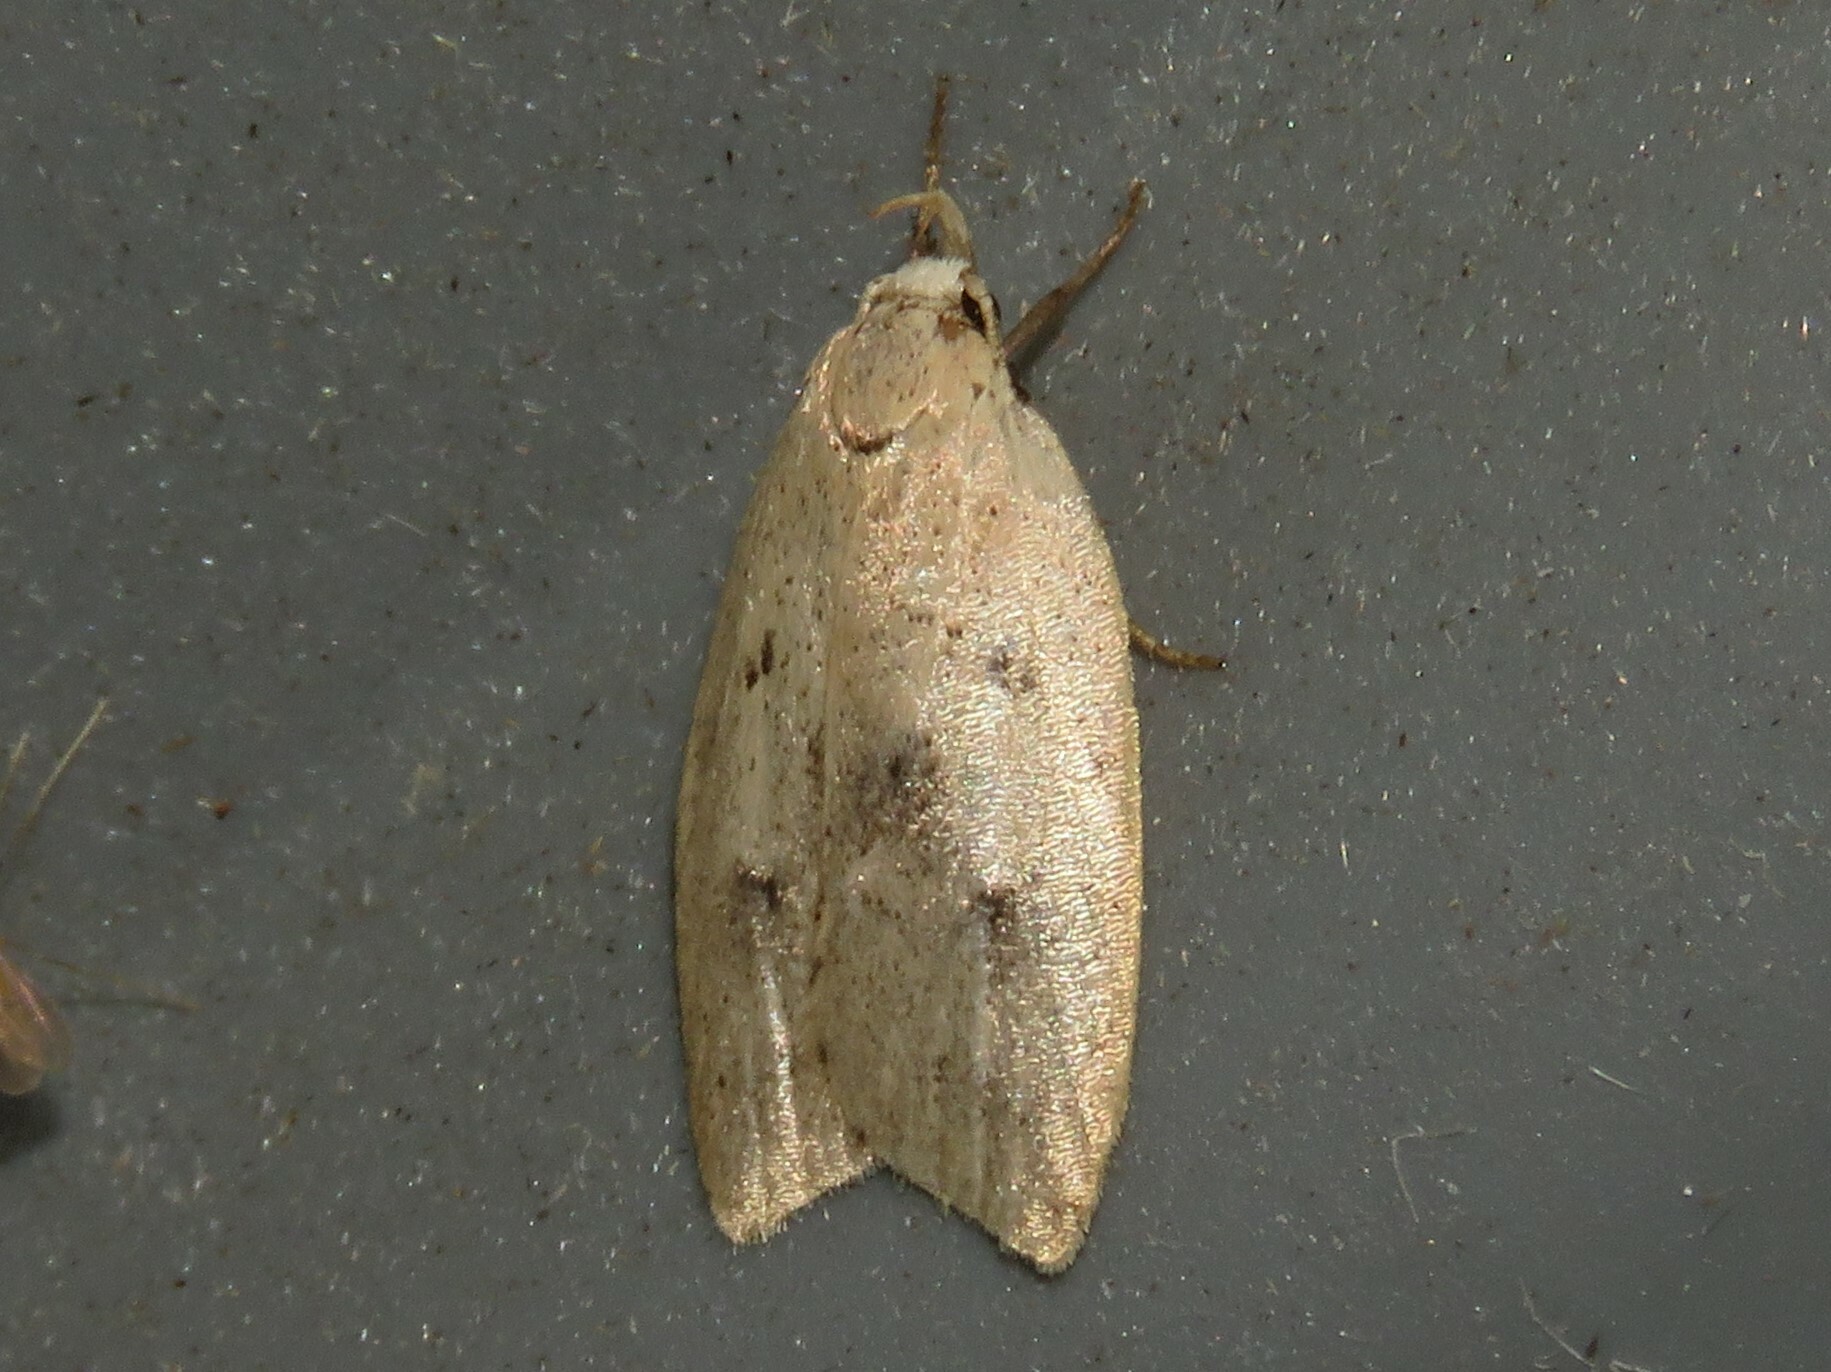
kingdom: Animalia
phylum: Arthropoda
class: Insecta
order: Lepidoptera
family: Peleopodidae
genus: Machimia
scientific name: Machimia tentoriferella
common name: Gold-striped leaftier moth
